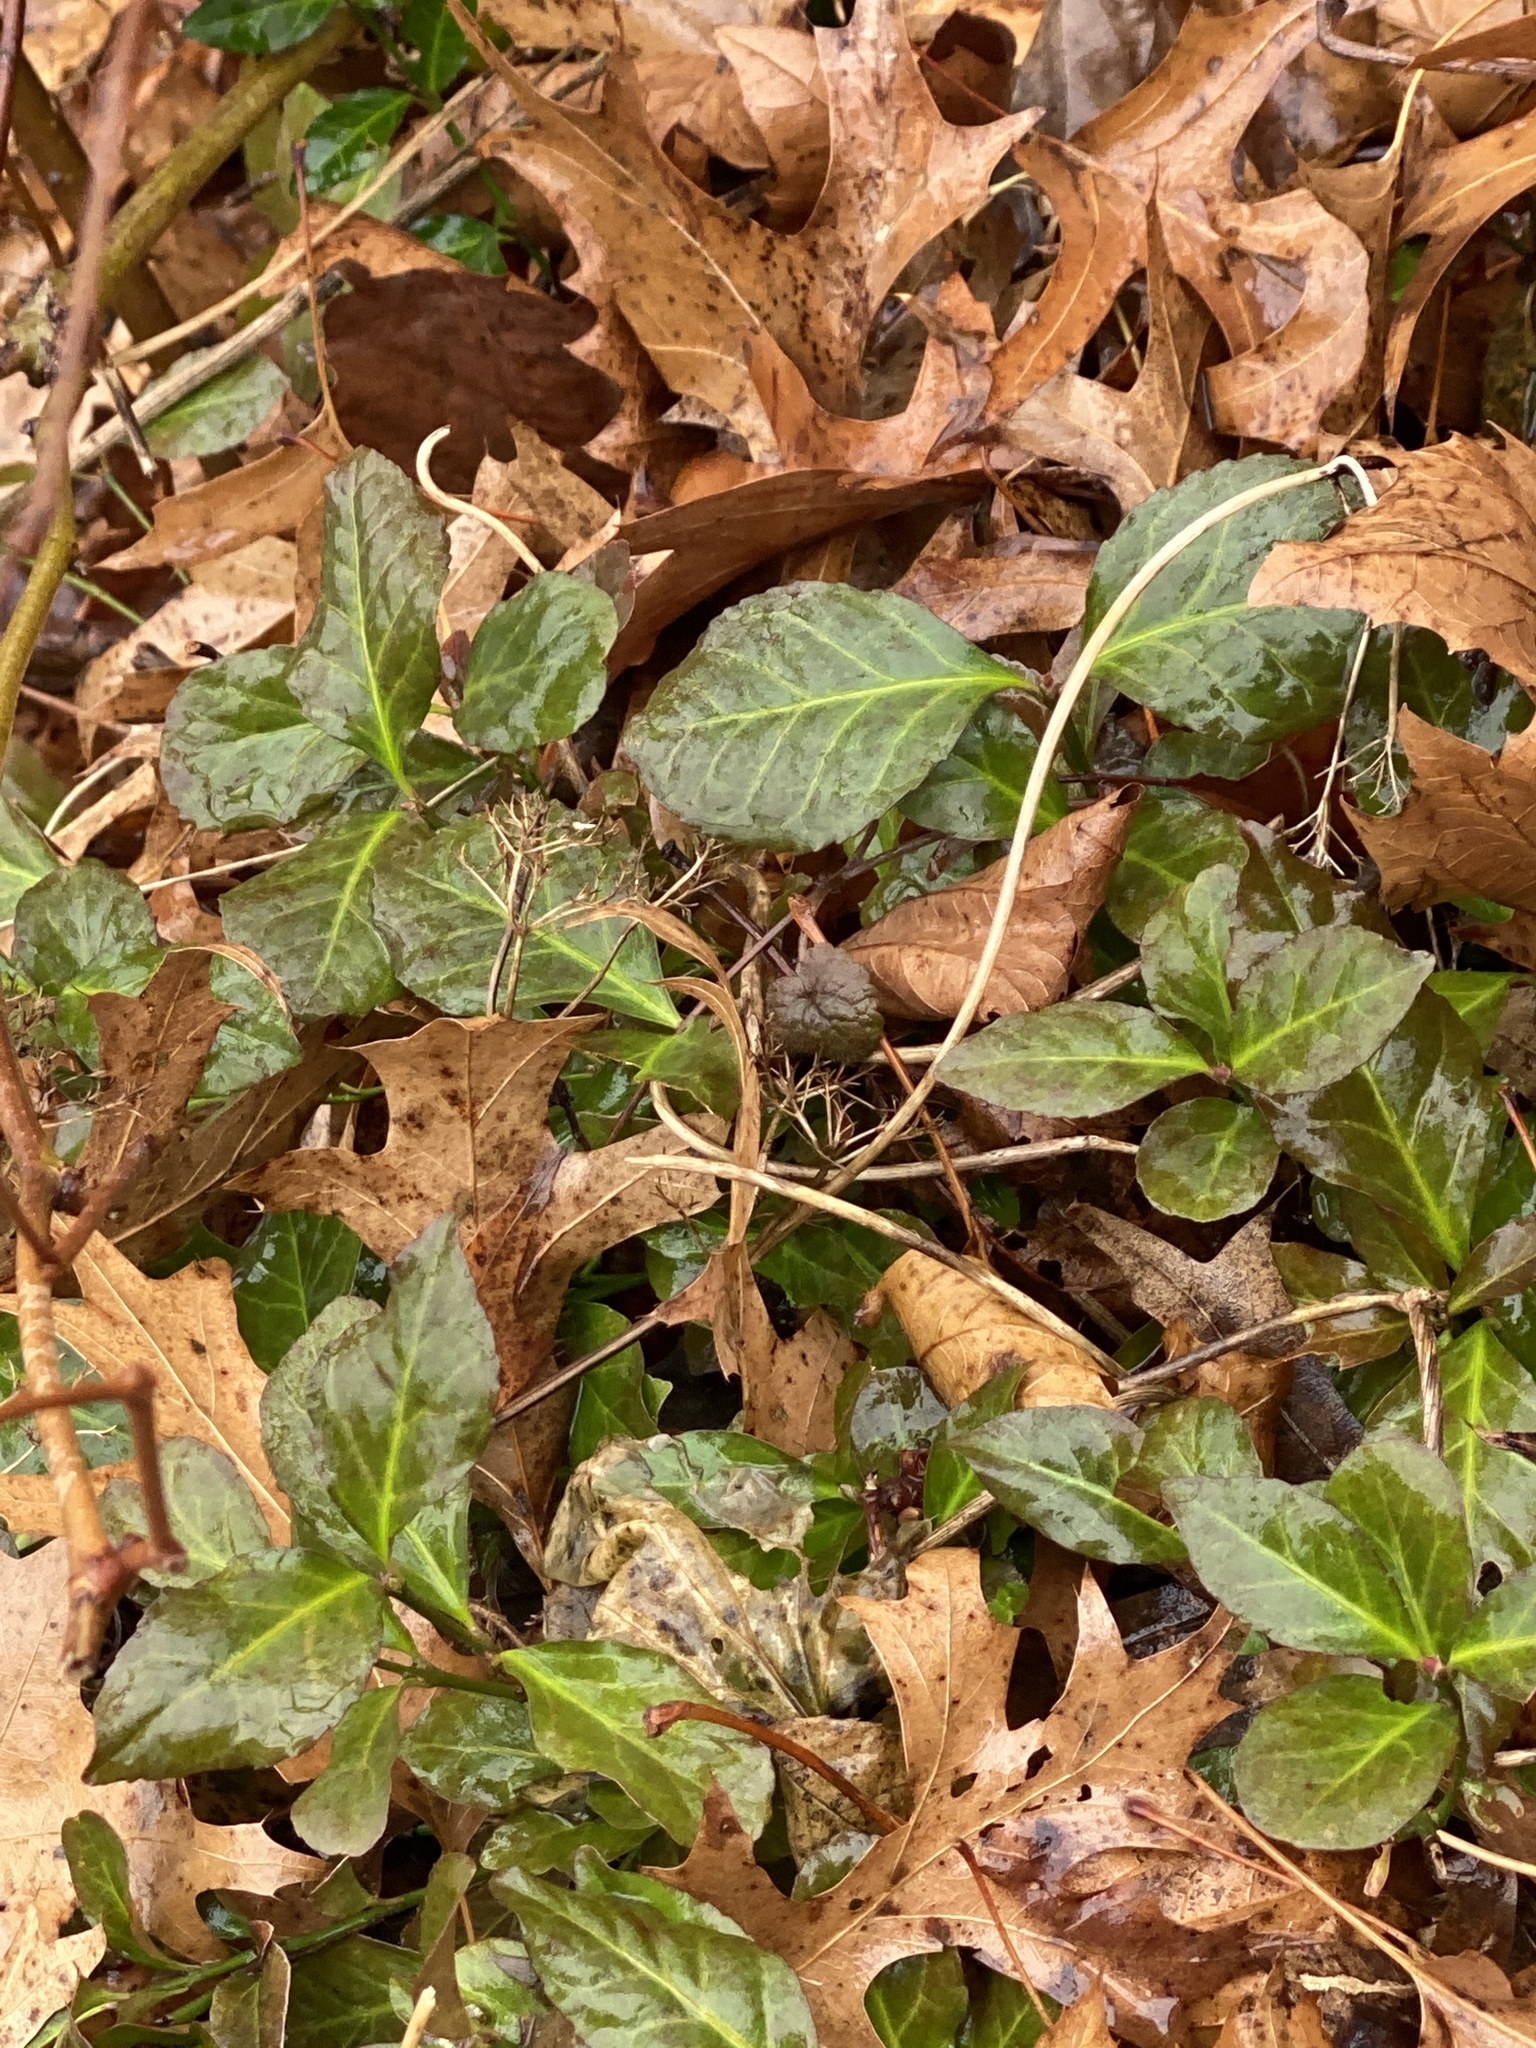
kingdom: Plantae
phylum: Tracheophyta
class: Magnoliopsida
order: Celastrales
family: Celastraceae
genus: Euonymus
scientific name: Euonymus fortunei
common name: Climbing euonymus
